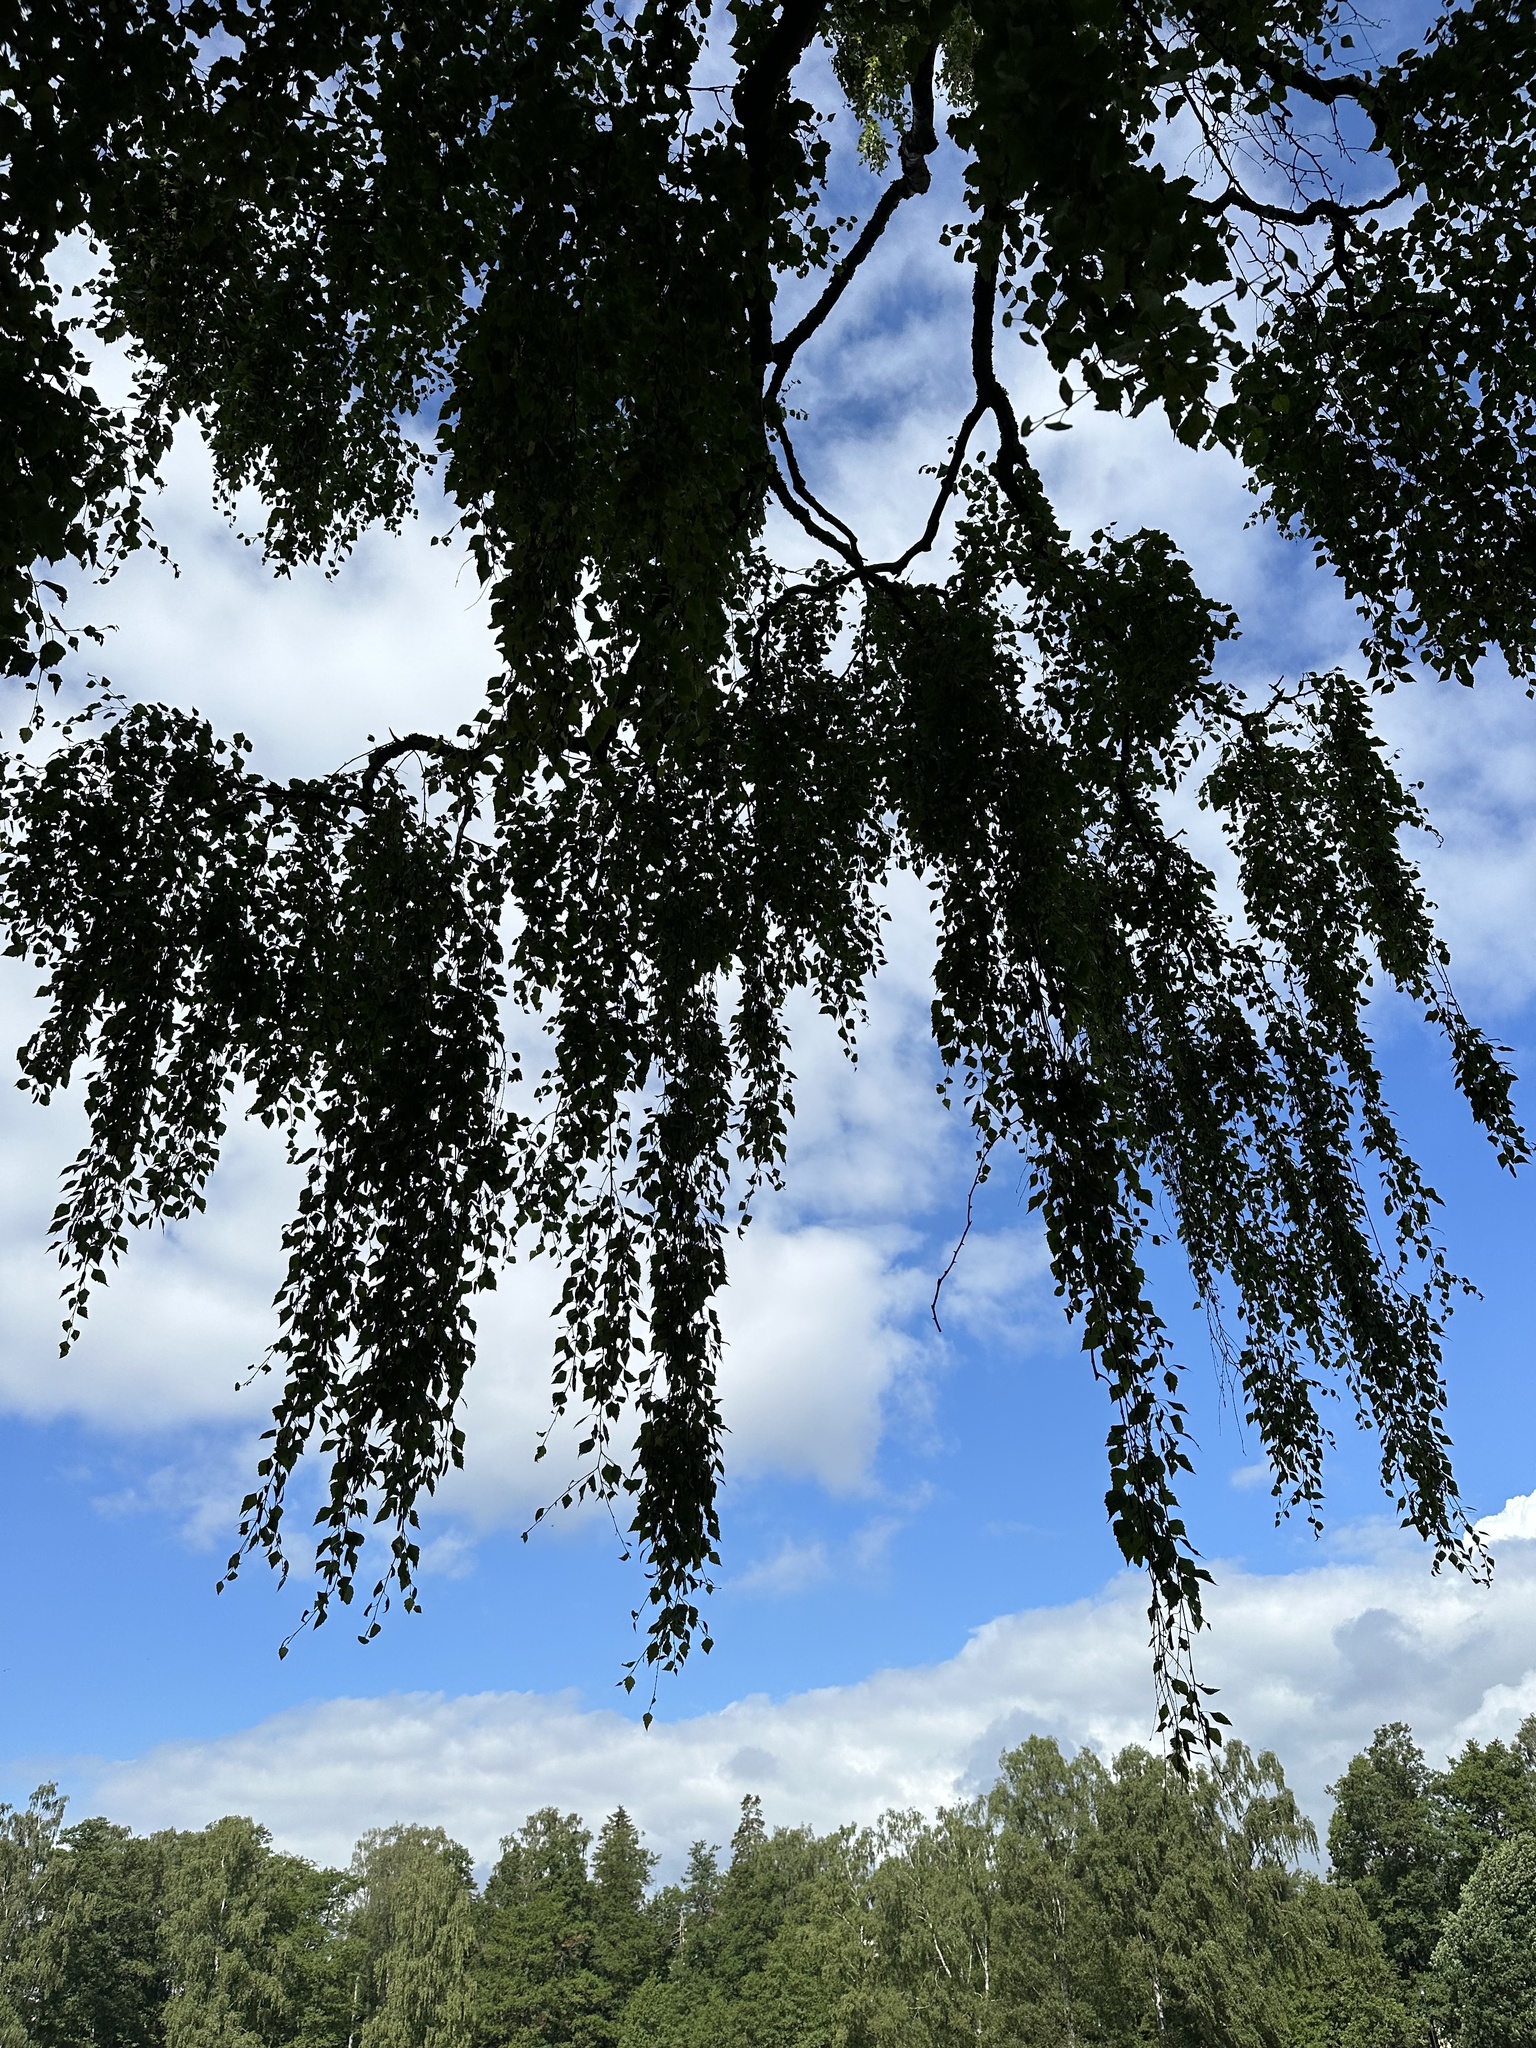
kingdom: Plantae
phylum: Tracheophyta
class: Magnoliopsida
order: Fagales
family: Betulaceae
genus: Betula
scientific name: Betula pendula
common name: Silver birch
